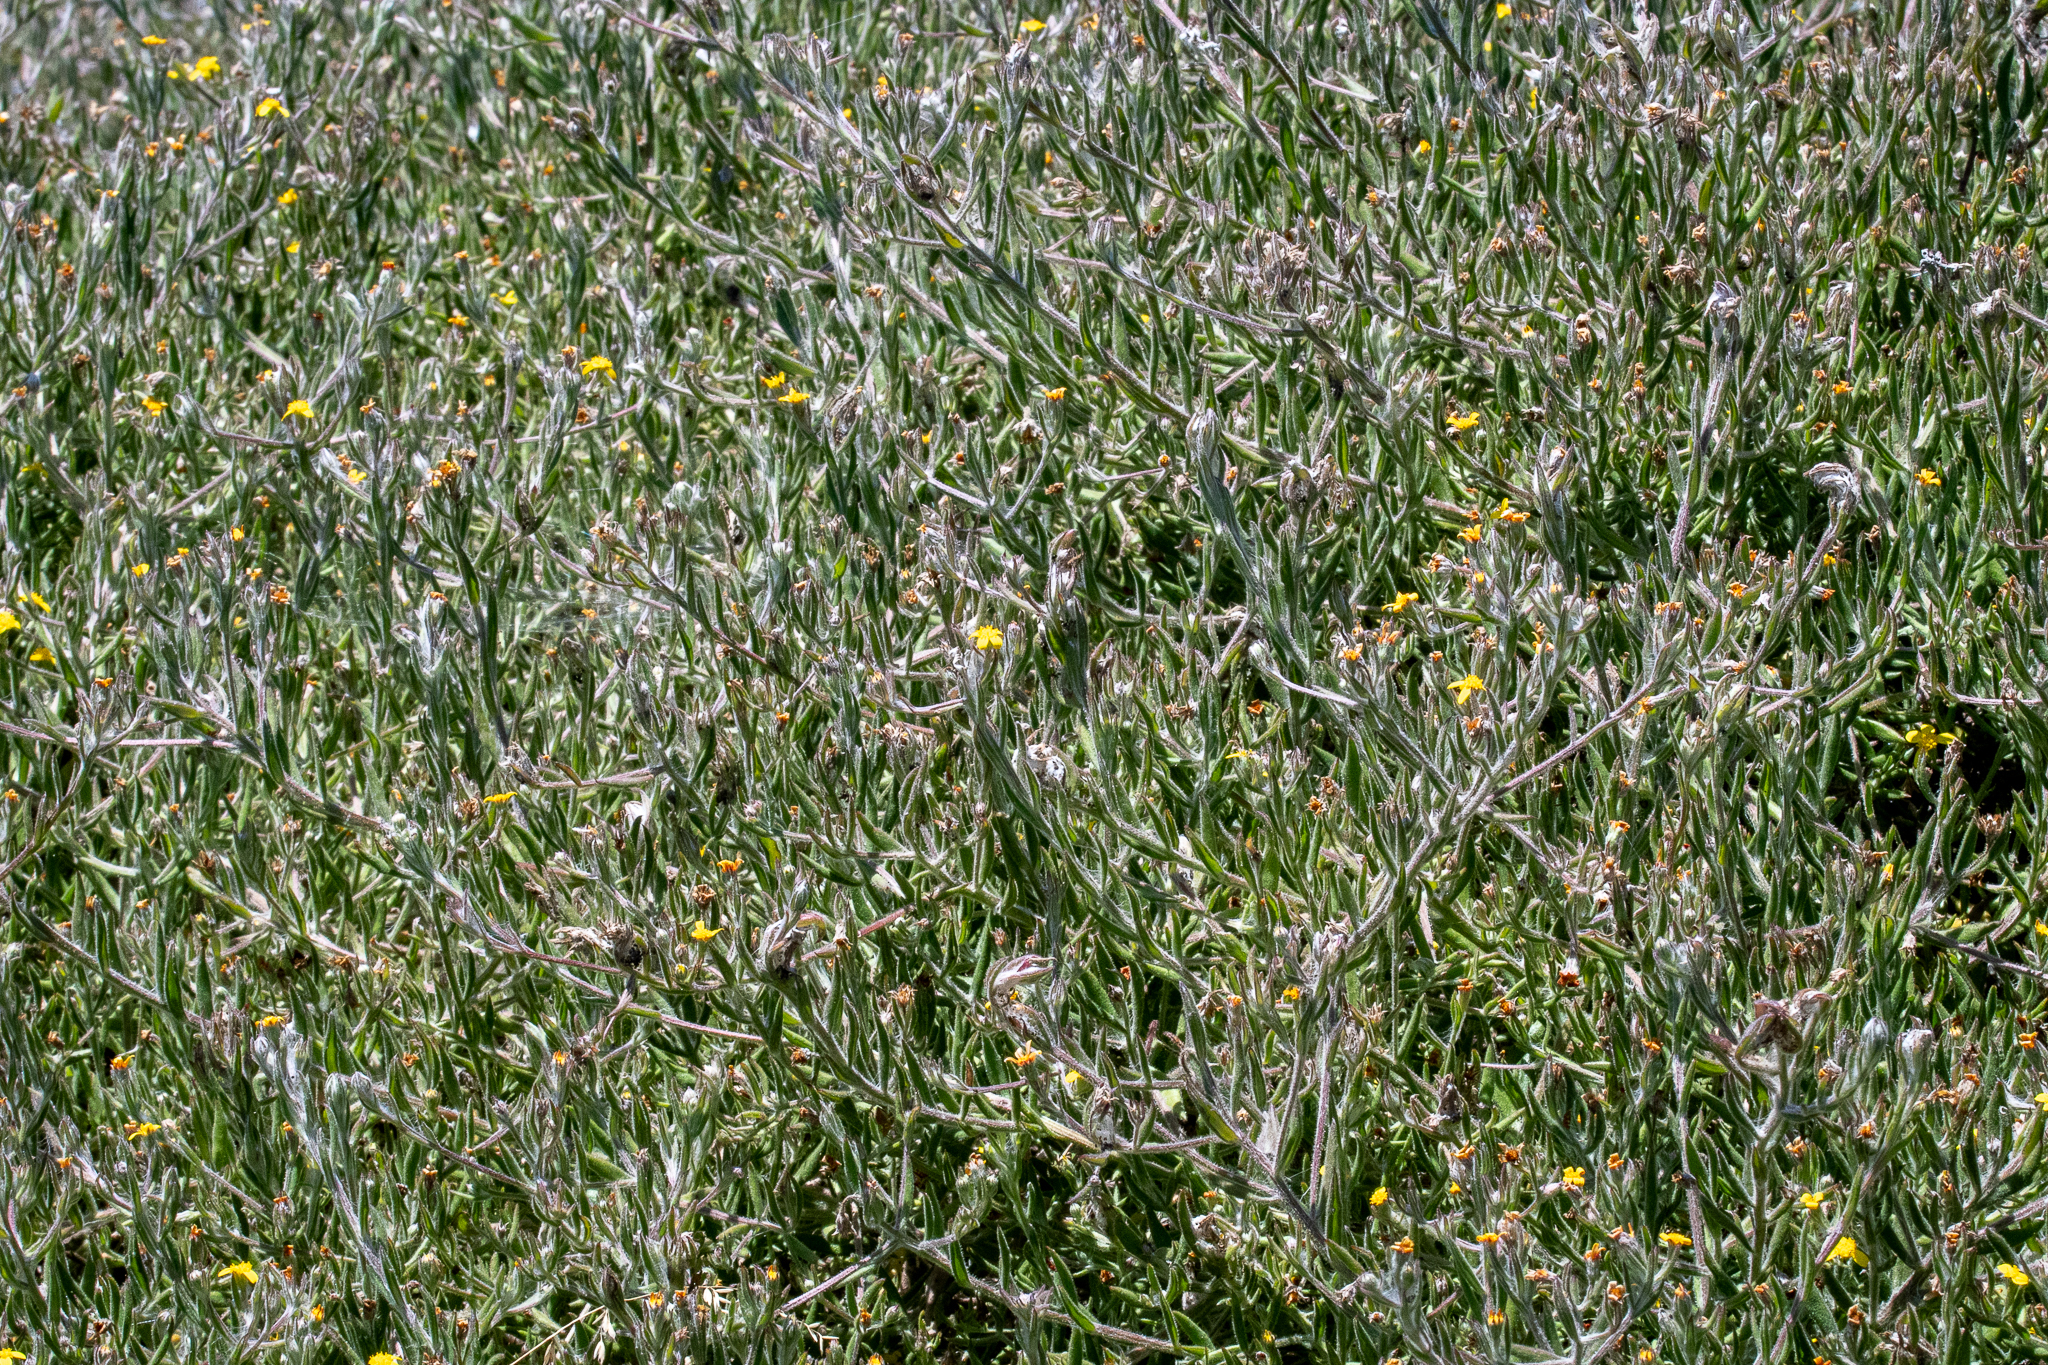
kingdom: Plantae
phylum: Tracheophyta
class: Magnoliopsida
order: Asterales
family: Asteraceae
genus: Osteospermum
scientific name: Osteospermum ciliatum
